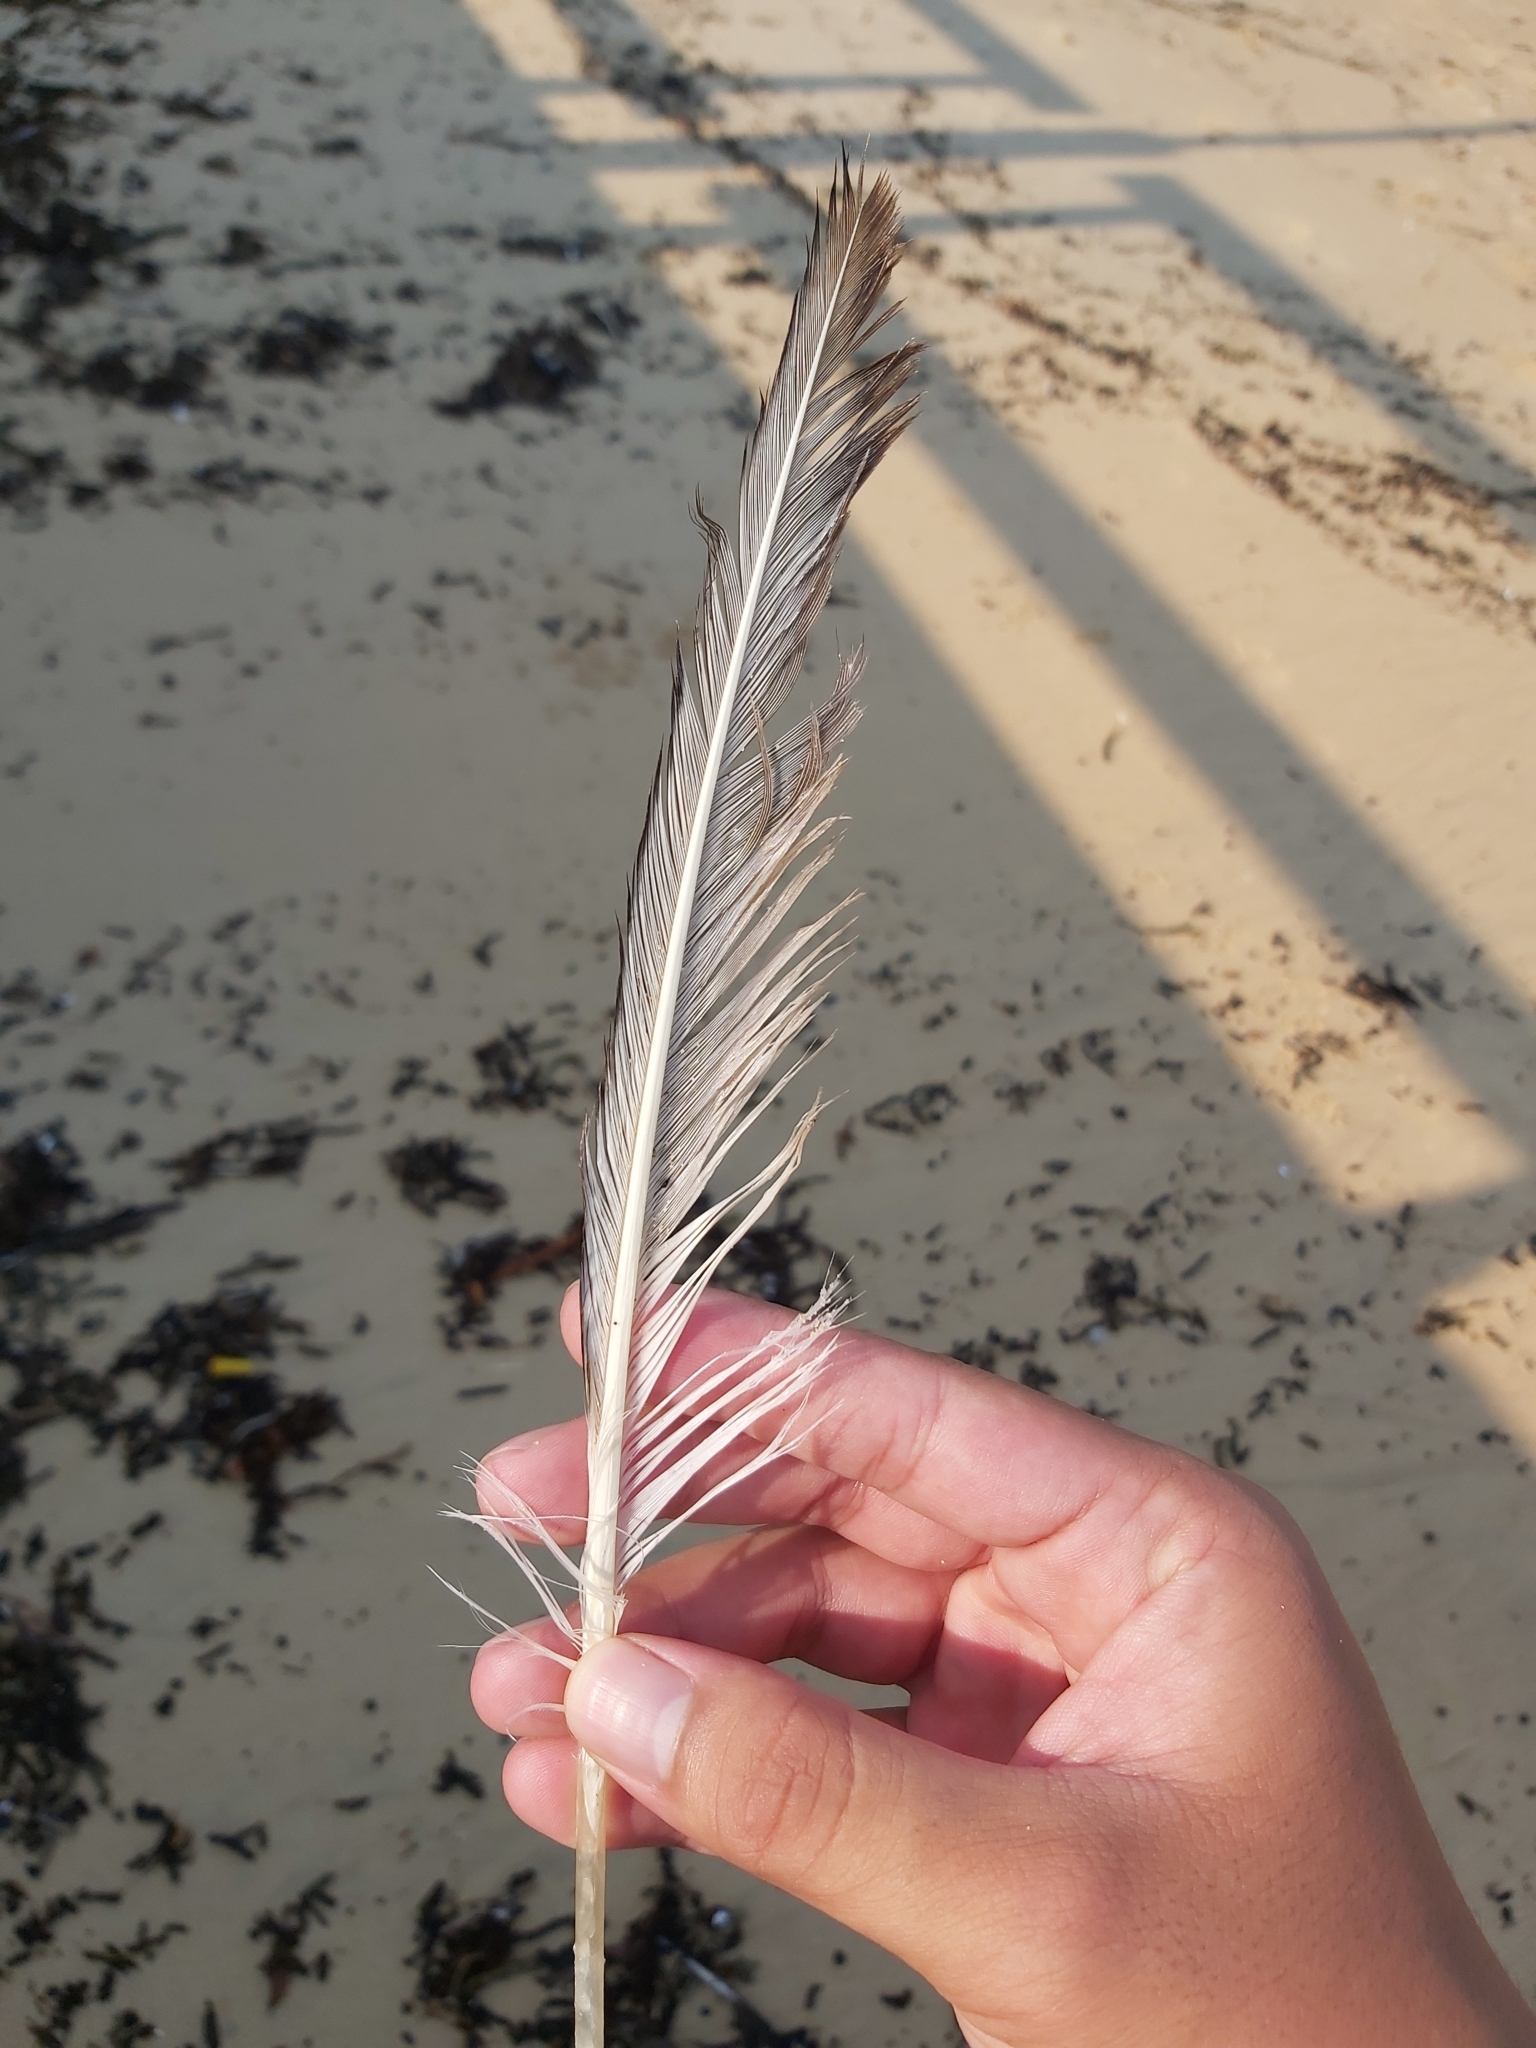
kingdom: Animalia
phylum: Chordata
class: Aves
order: Suliformes
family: Sulidae
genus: Morus
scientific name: Morus serrator
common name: Australasian gannet
